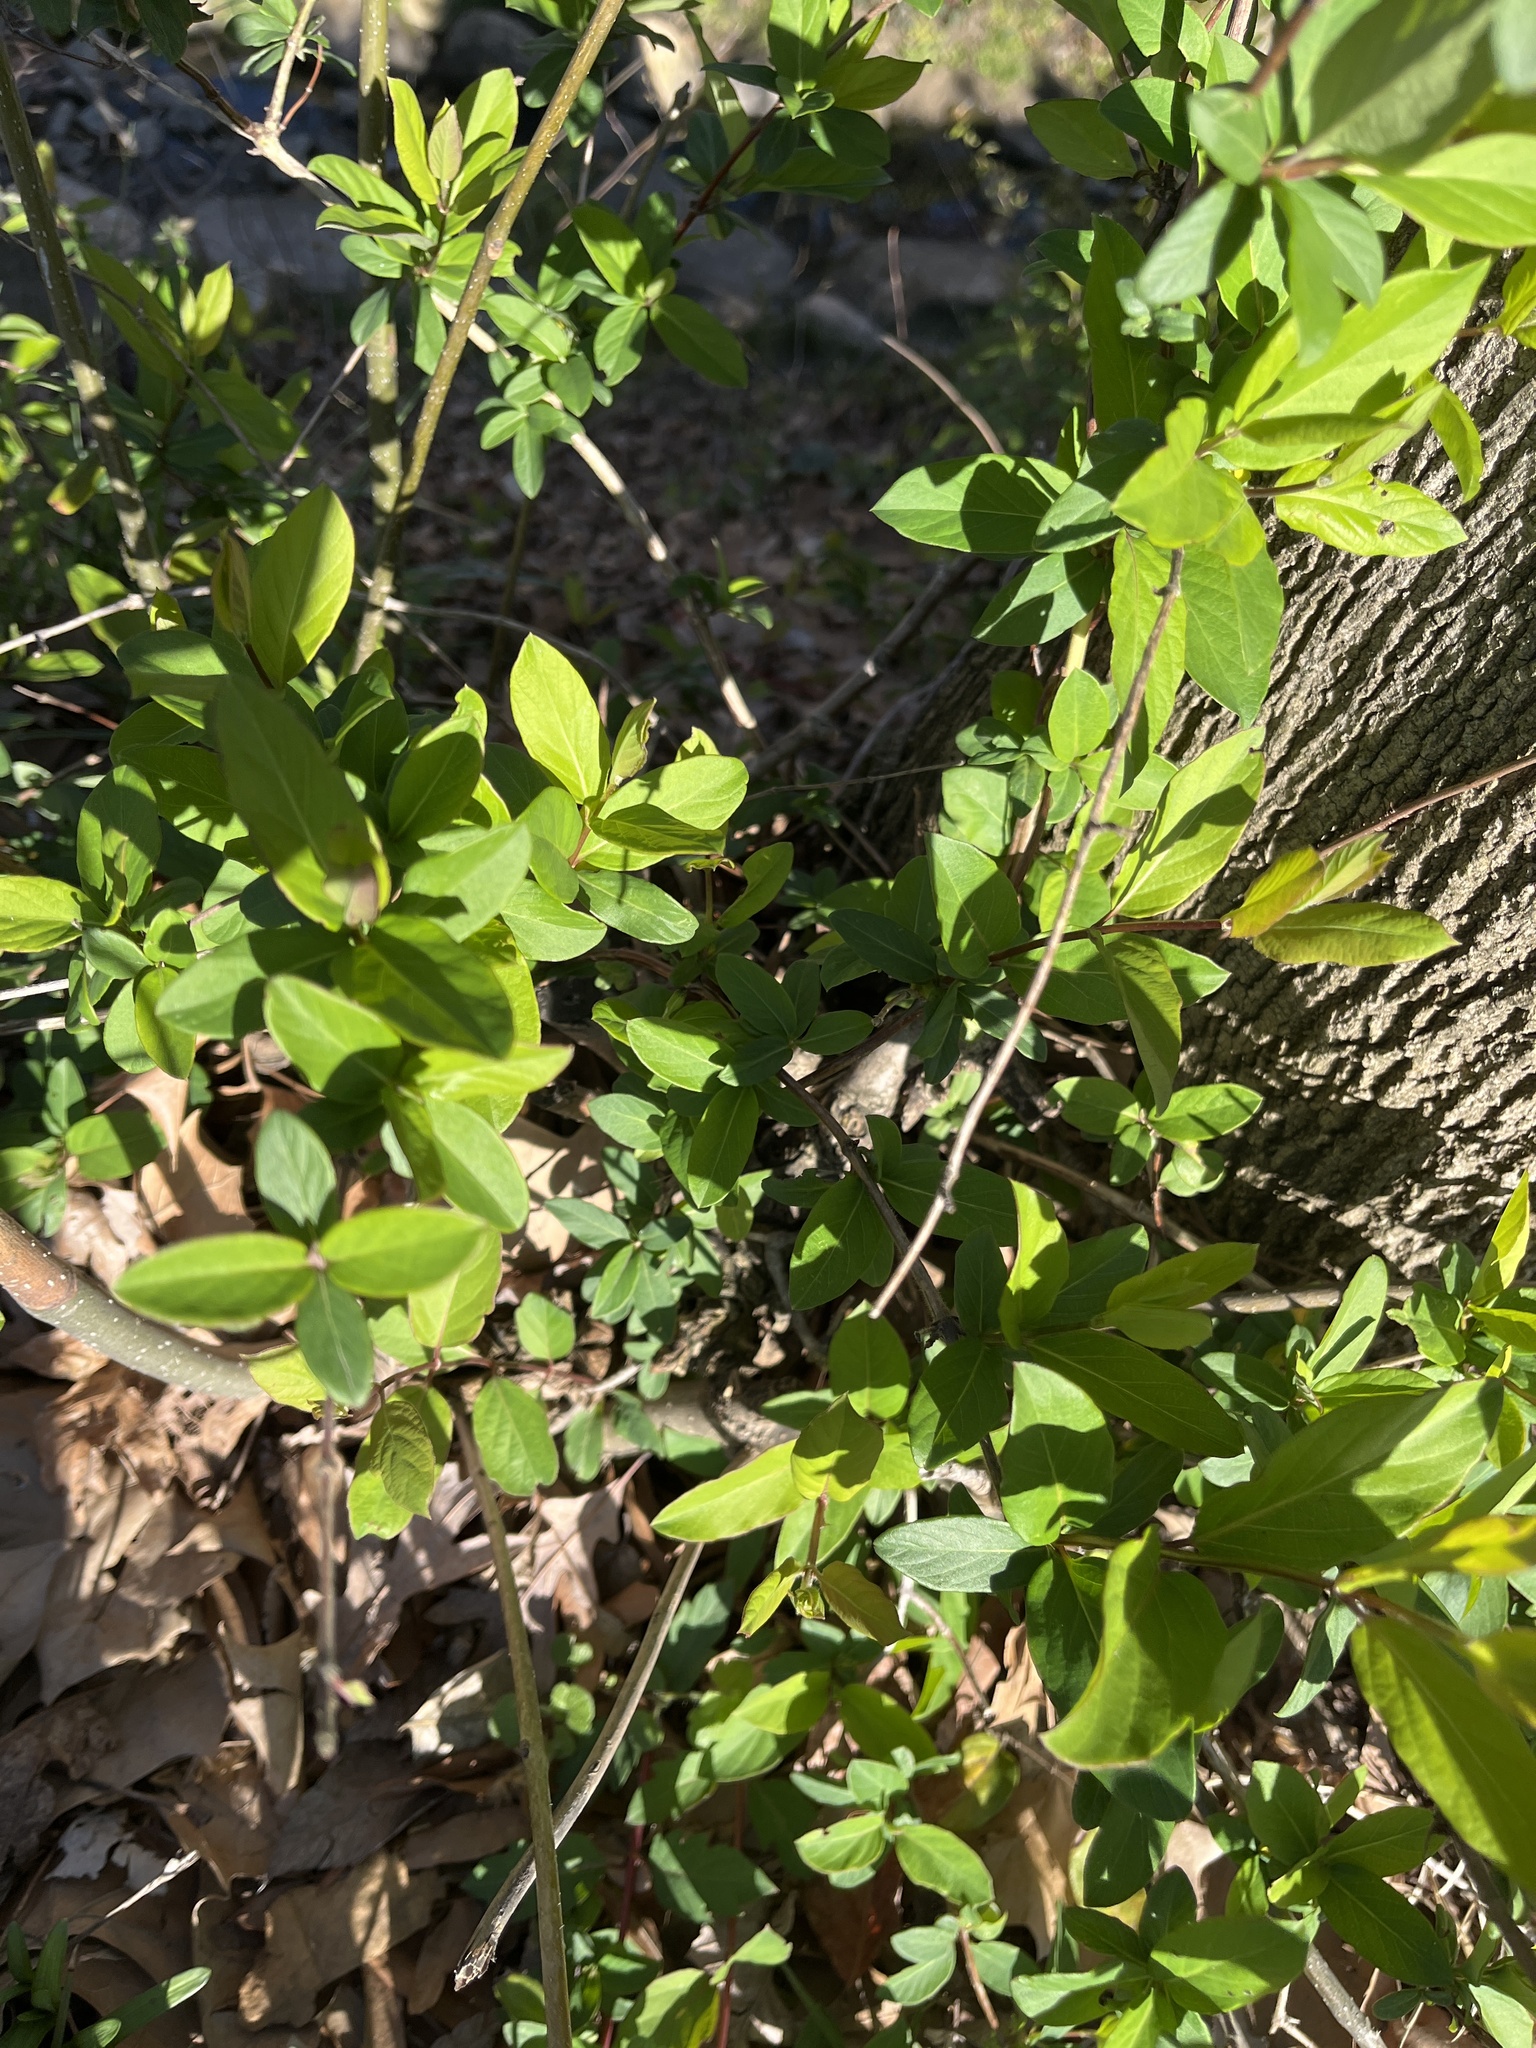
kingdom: Plantae
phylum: Tracheophyta
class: Magnoliopsida
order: Dipsacales
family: Caprifoliaceae
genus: Lonicera
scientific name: Lonicera japonica
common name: Japanese honeysuckle
